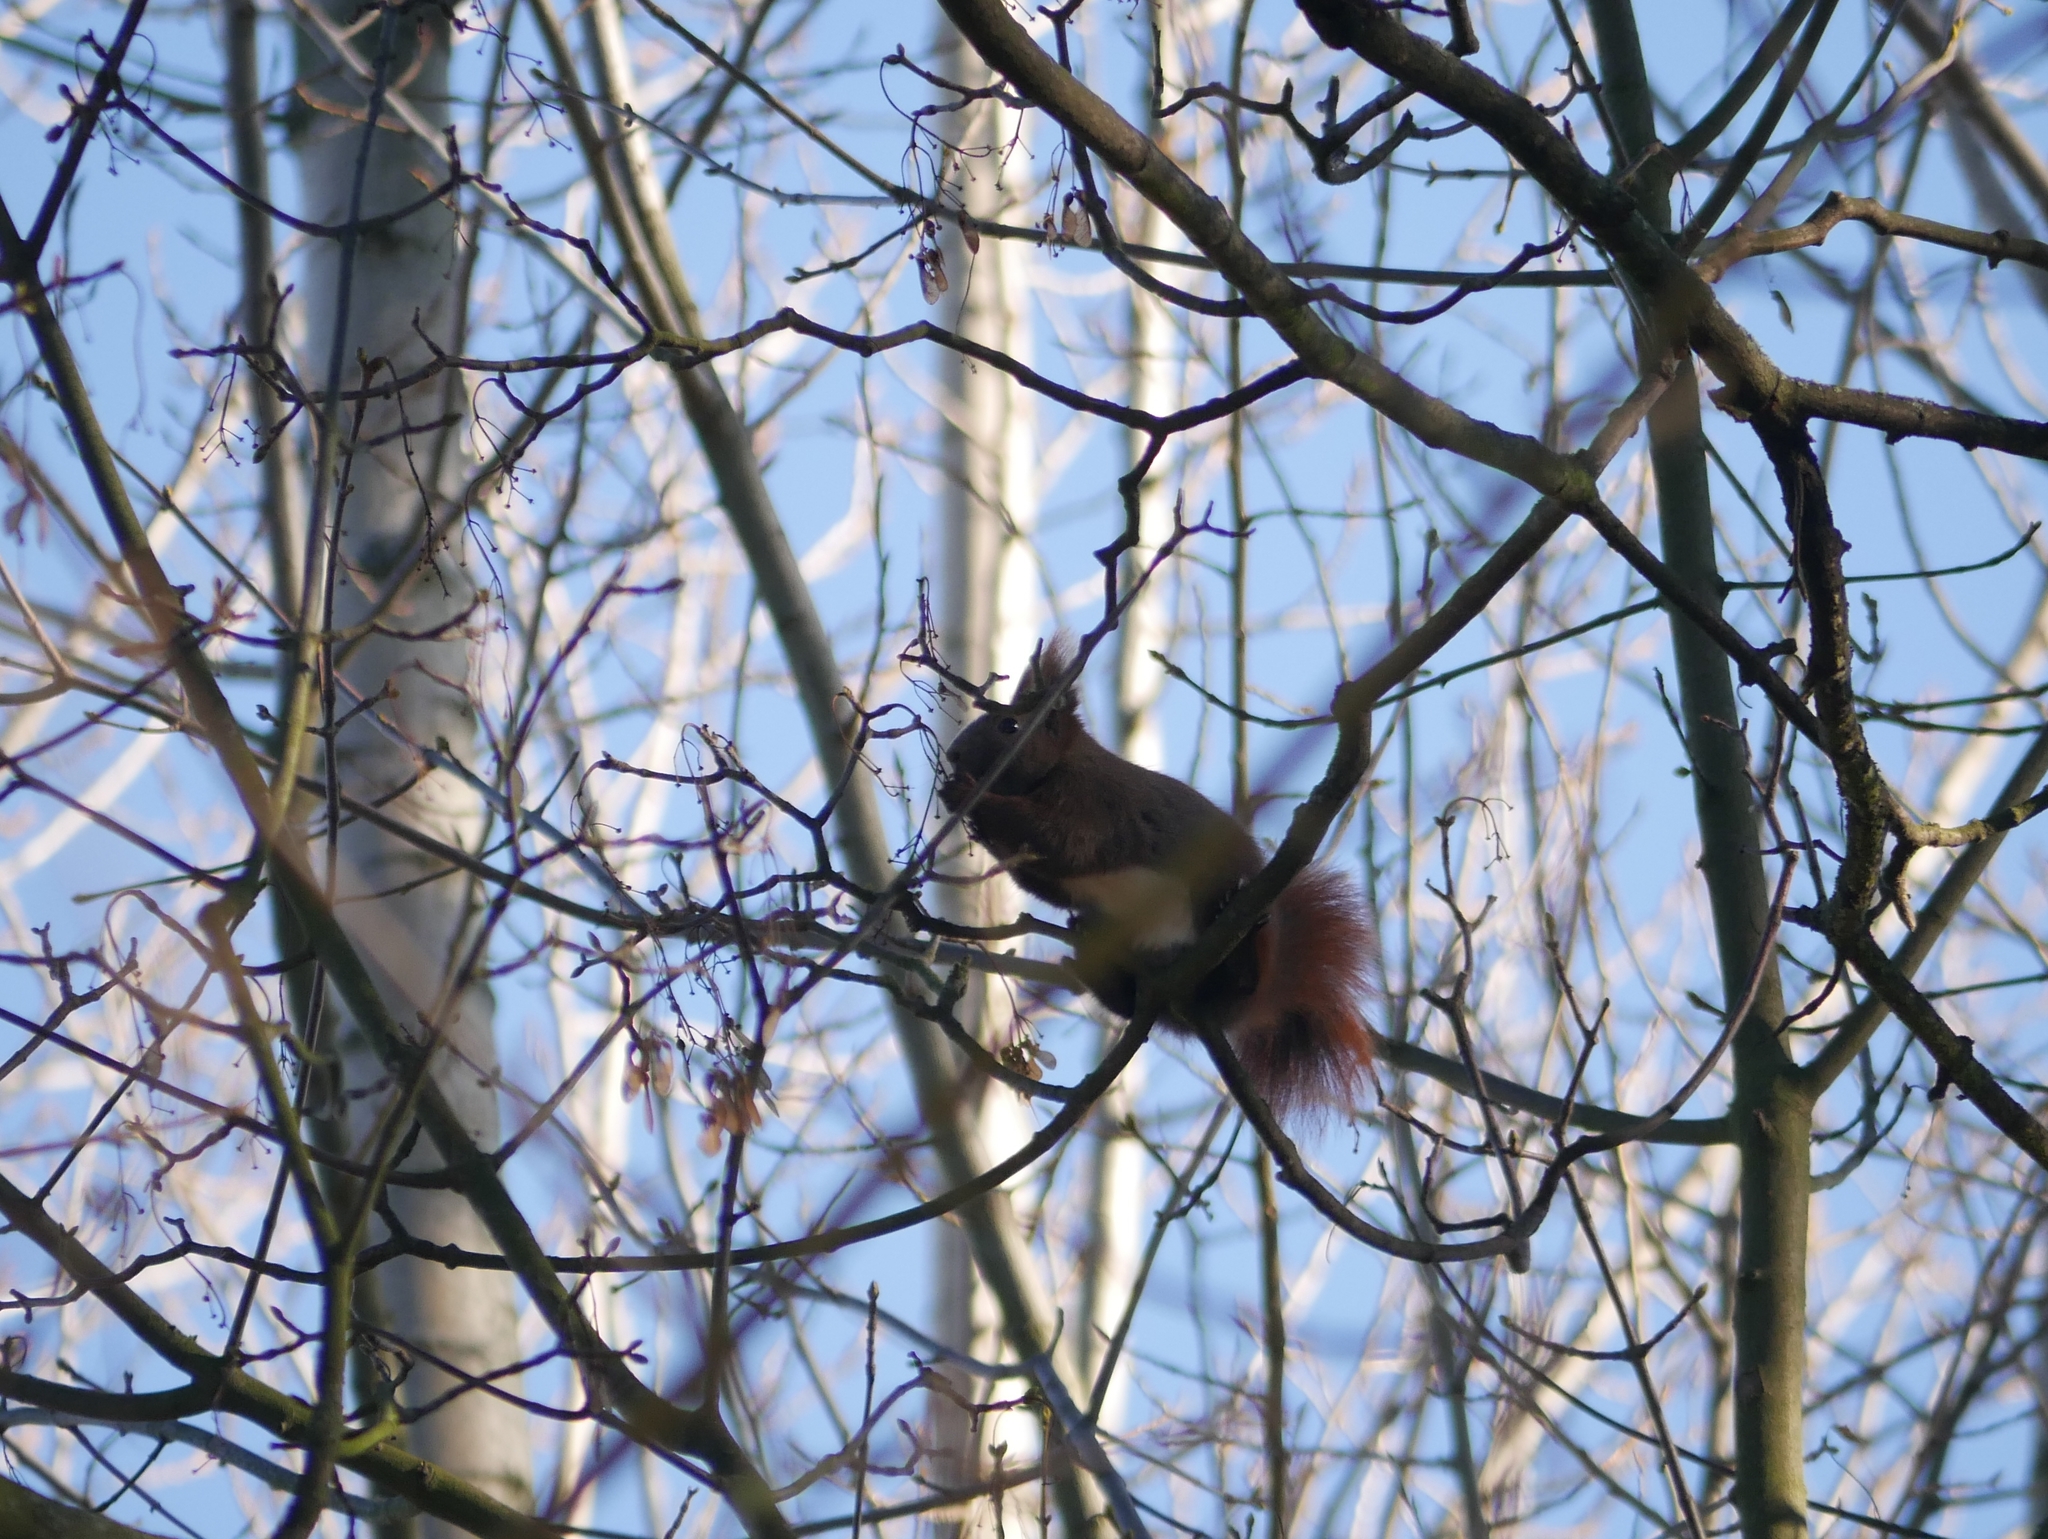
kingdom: Animalia
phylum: Chordata
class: Mammalia
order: Rodentia
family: Sciuridae
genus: Sciurus
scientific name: Sciurus vulgaris
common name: Eurasian red squirrel
